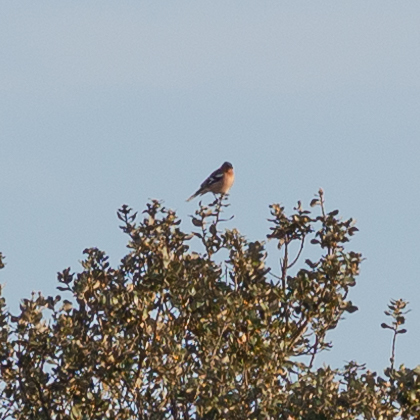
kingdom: Animalia
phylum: Chordata
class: Aves
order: Passeriformes
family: Fringillidae
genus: Fringilla
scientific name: Fringilla coelebs
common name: Common chaffinch
